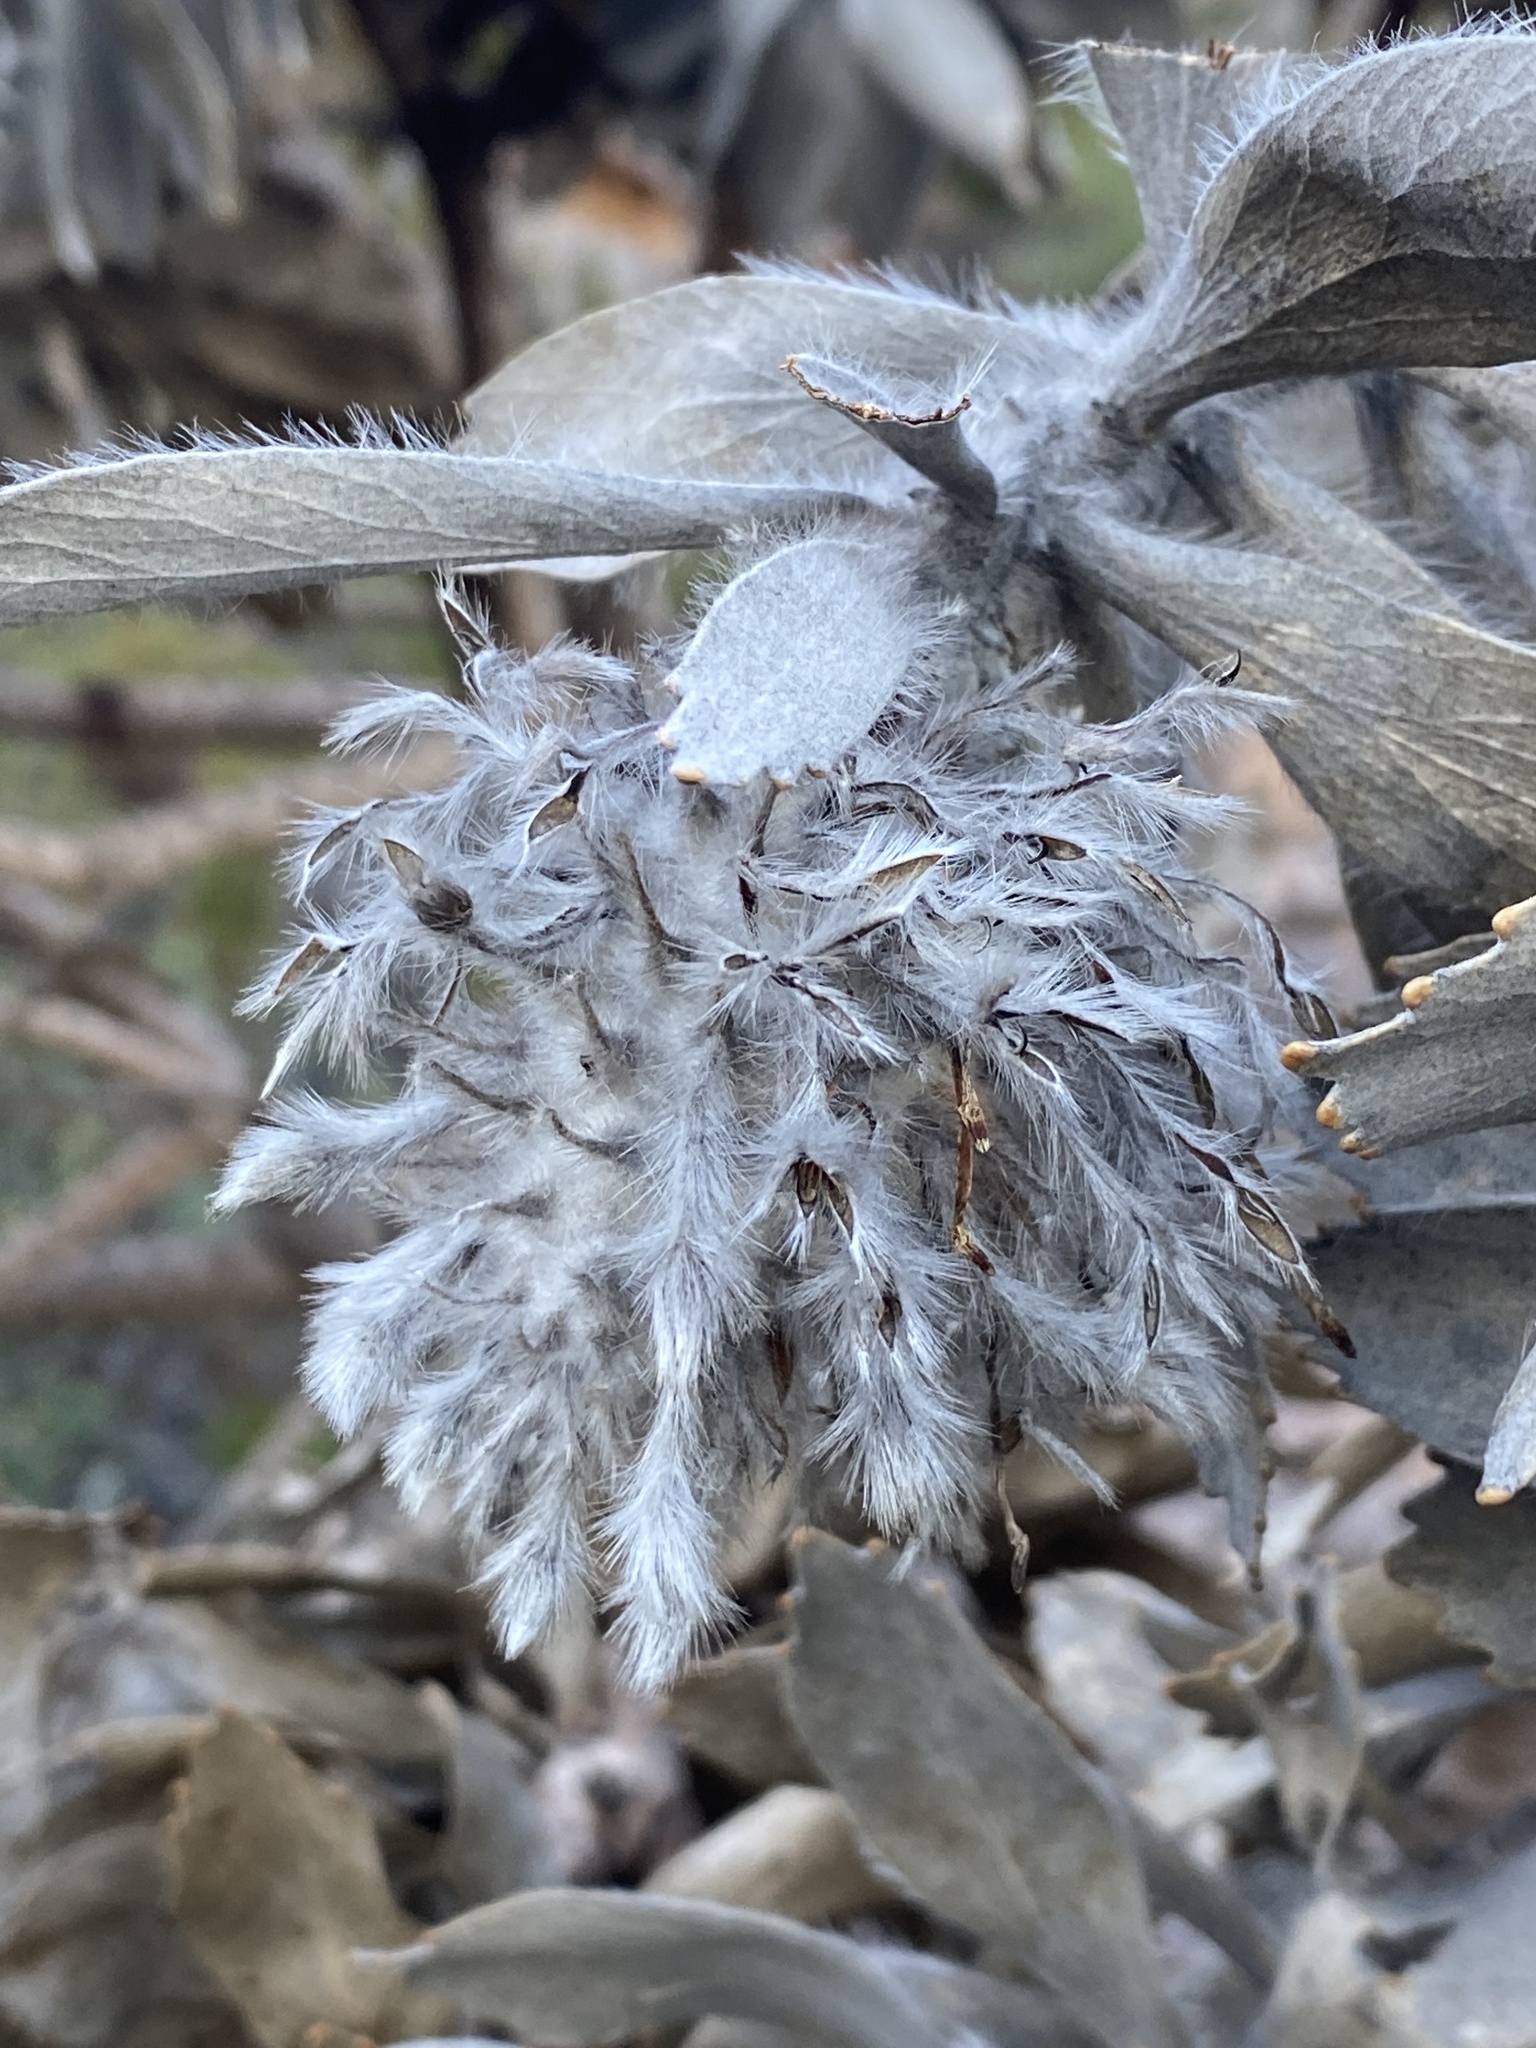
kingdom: Plantae
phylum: Tracheophyta
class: Magnoliopsida
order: Proteales
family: Proteaceae
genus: Leucospermum
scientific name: Leucospermum conocarpodendron
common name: Tree pincushion
